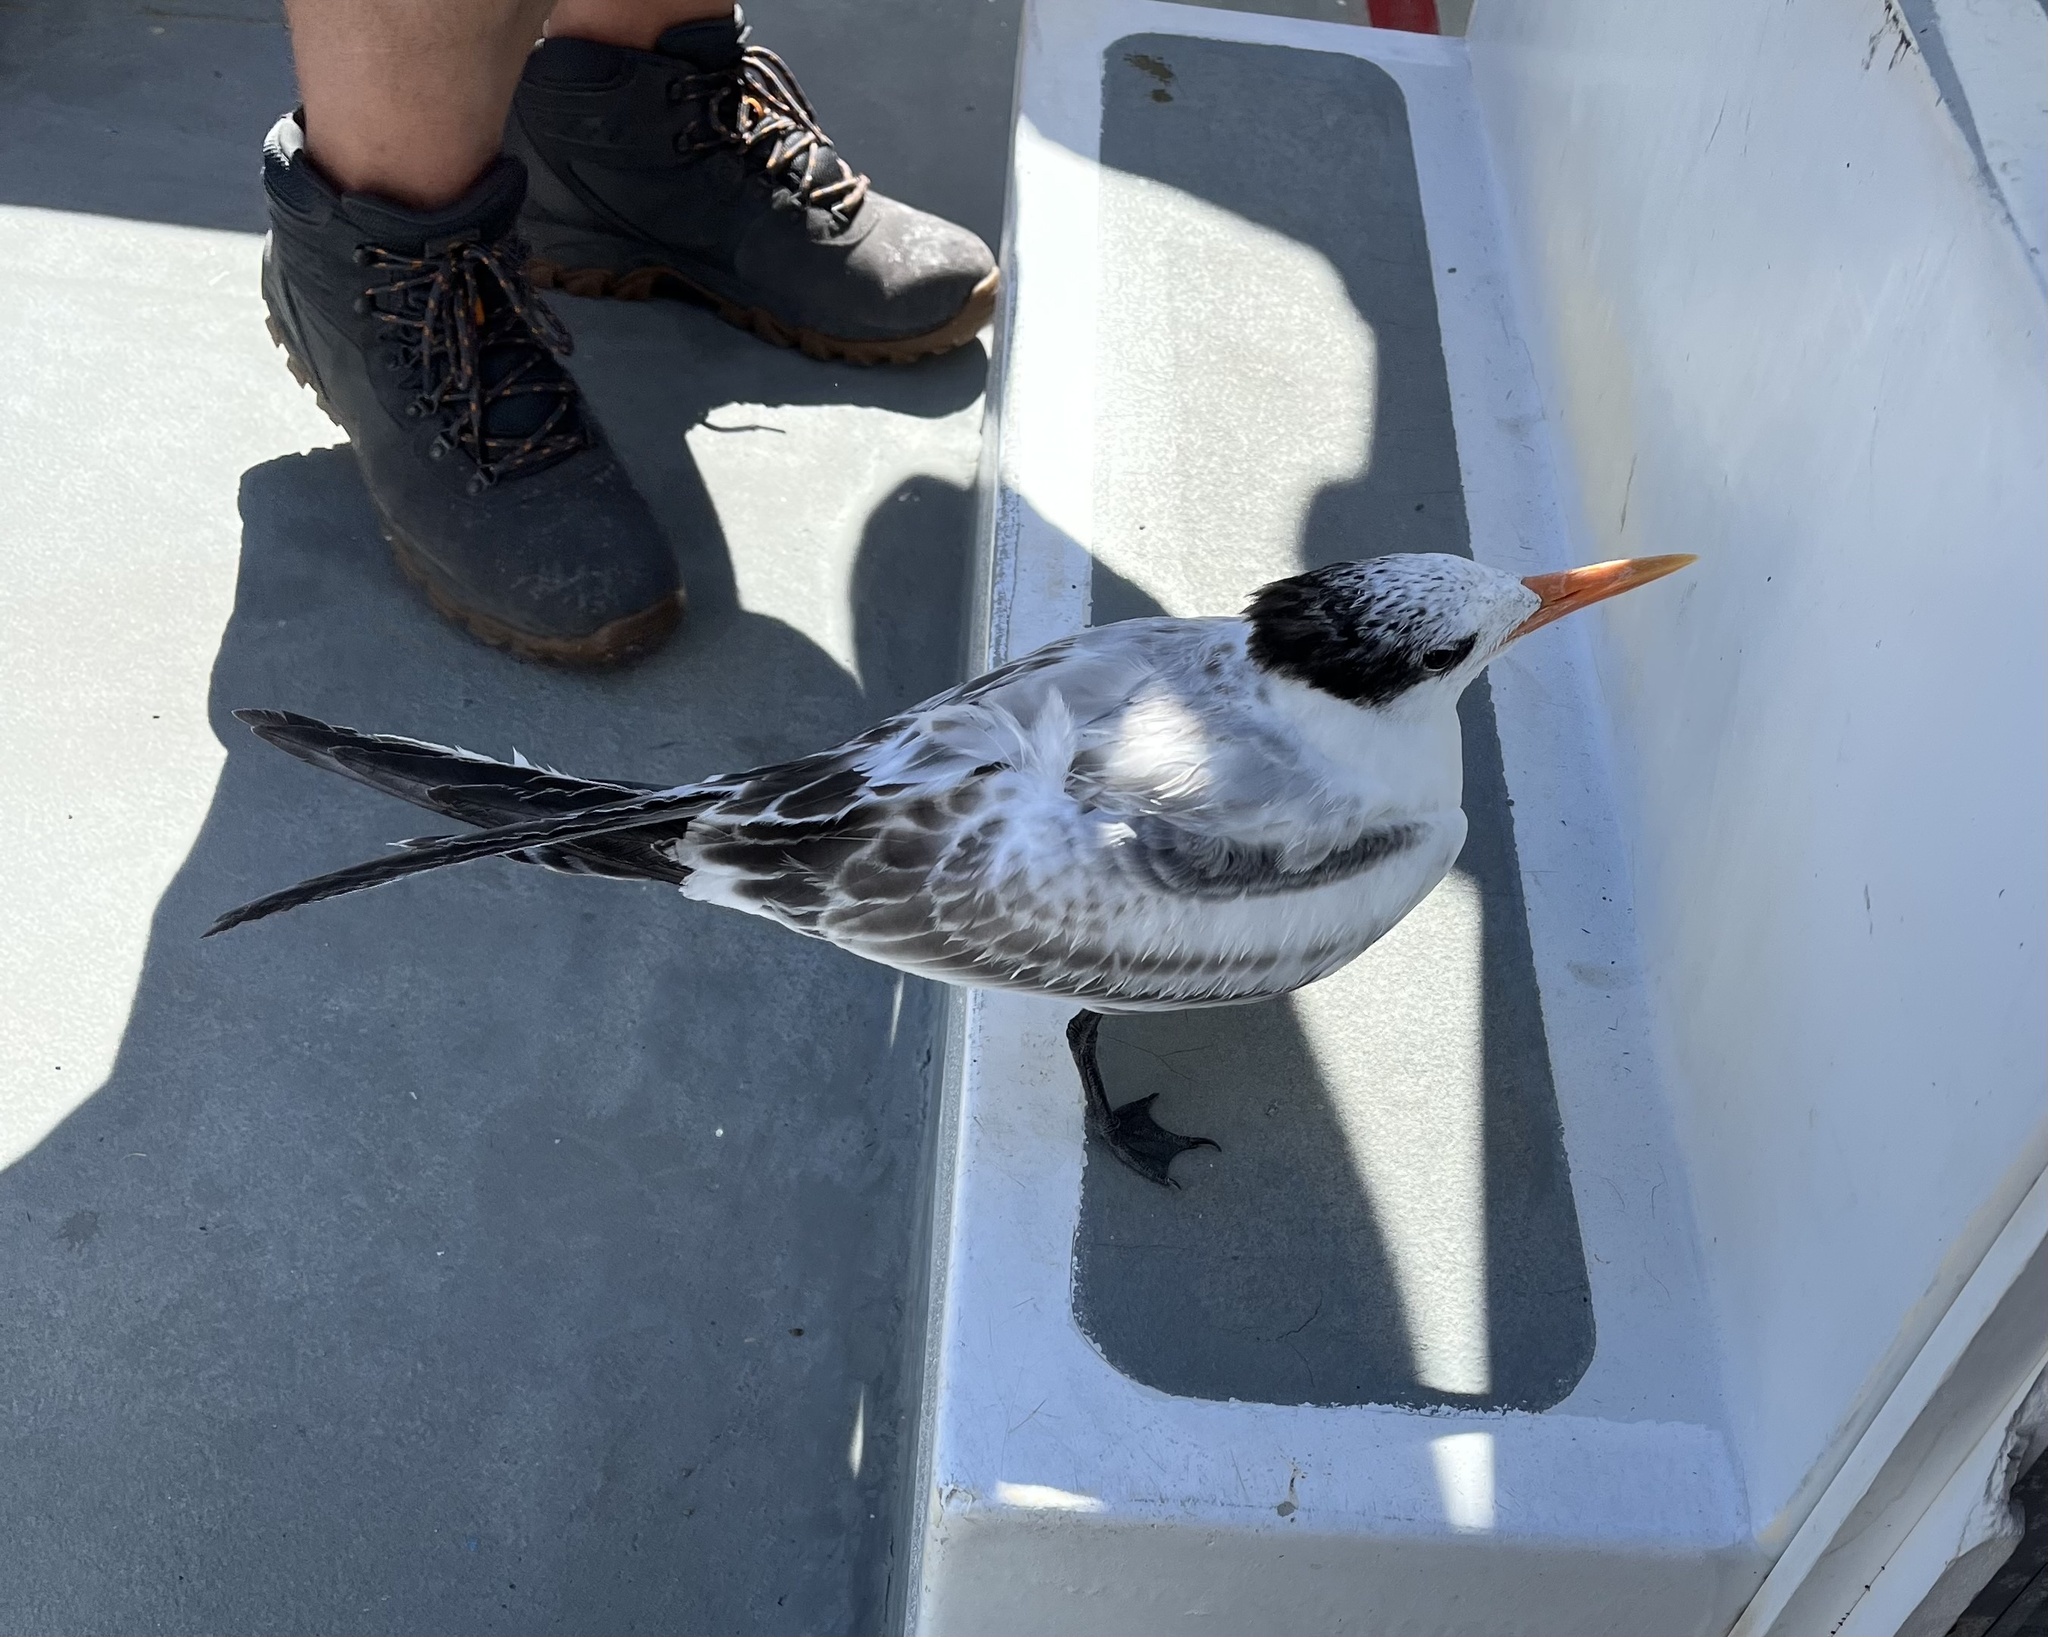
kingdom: Animalia
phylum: Chordata
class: Aves
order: Charadriiformes
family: Laridae
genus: Thalasseus
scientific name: Thalasseus maximus
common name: Royal tern
